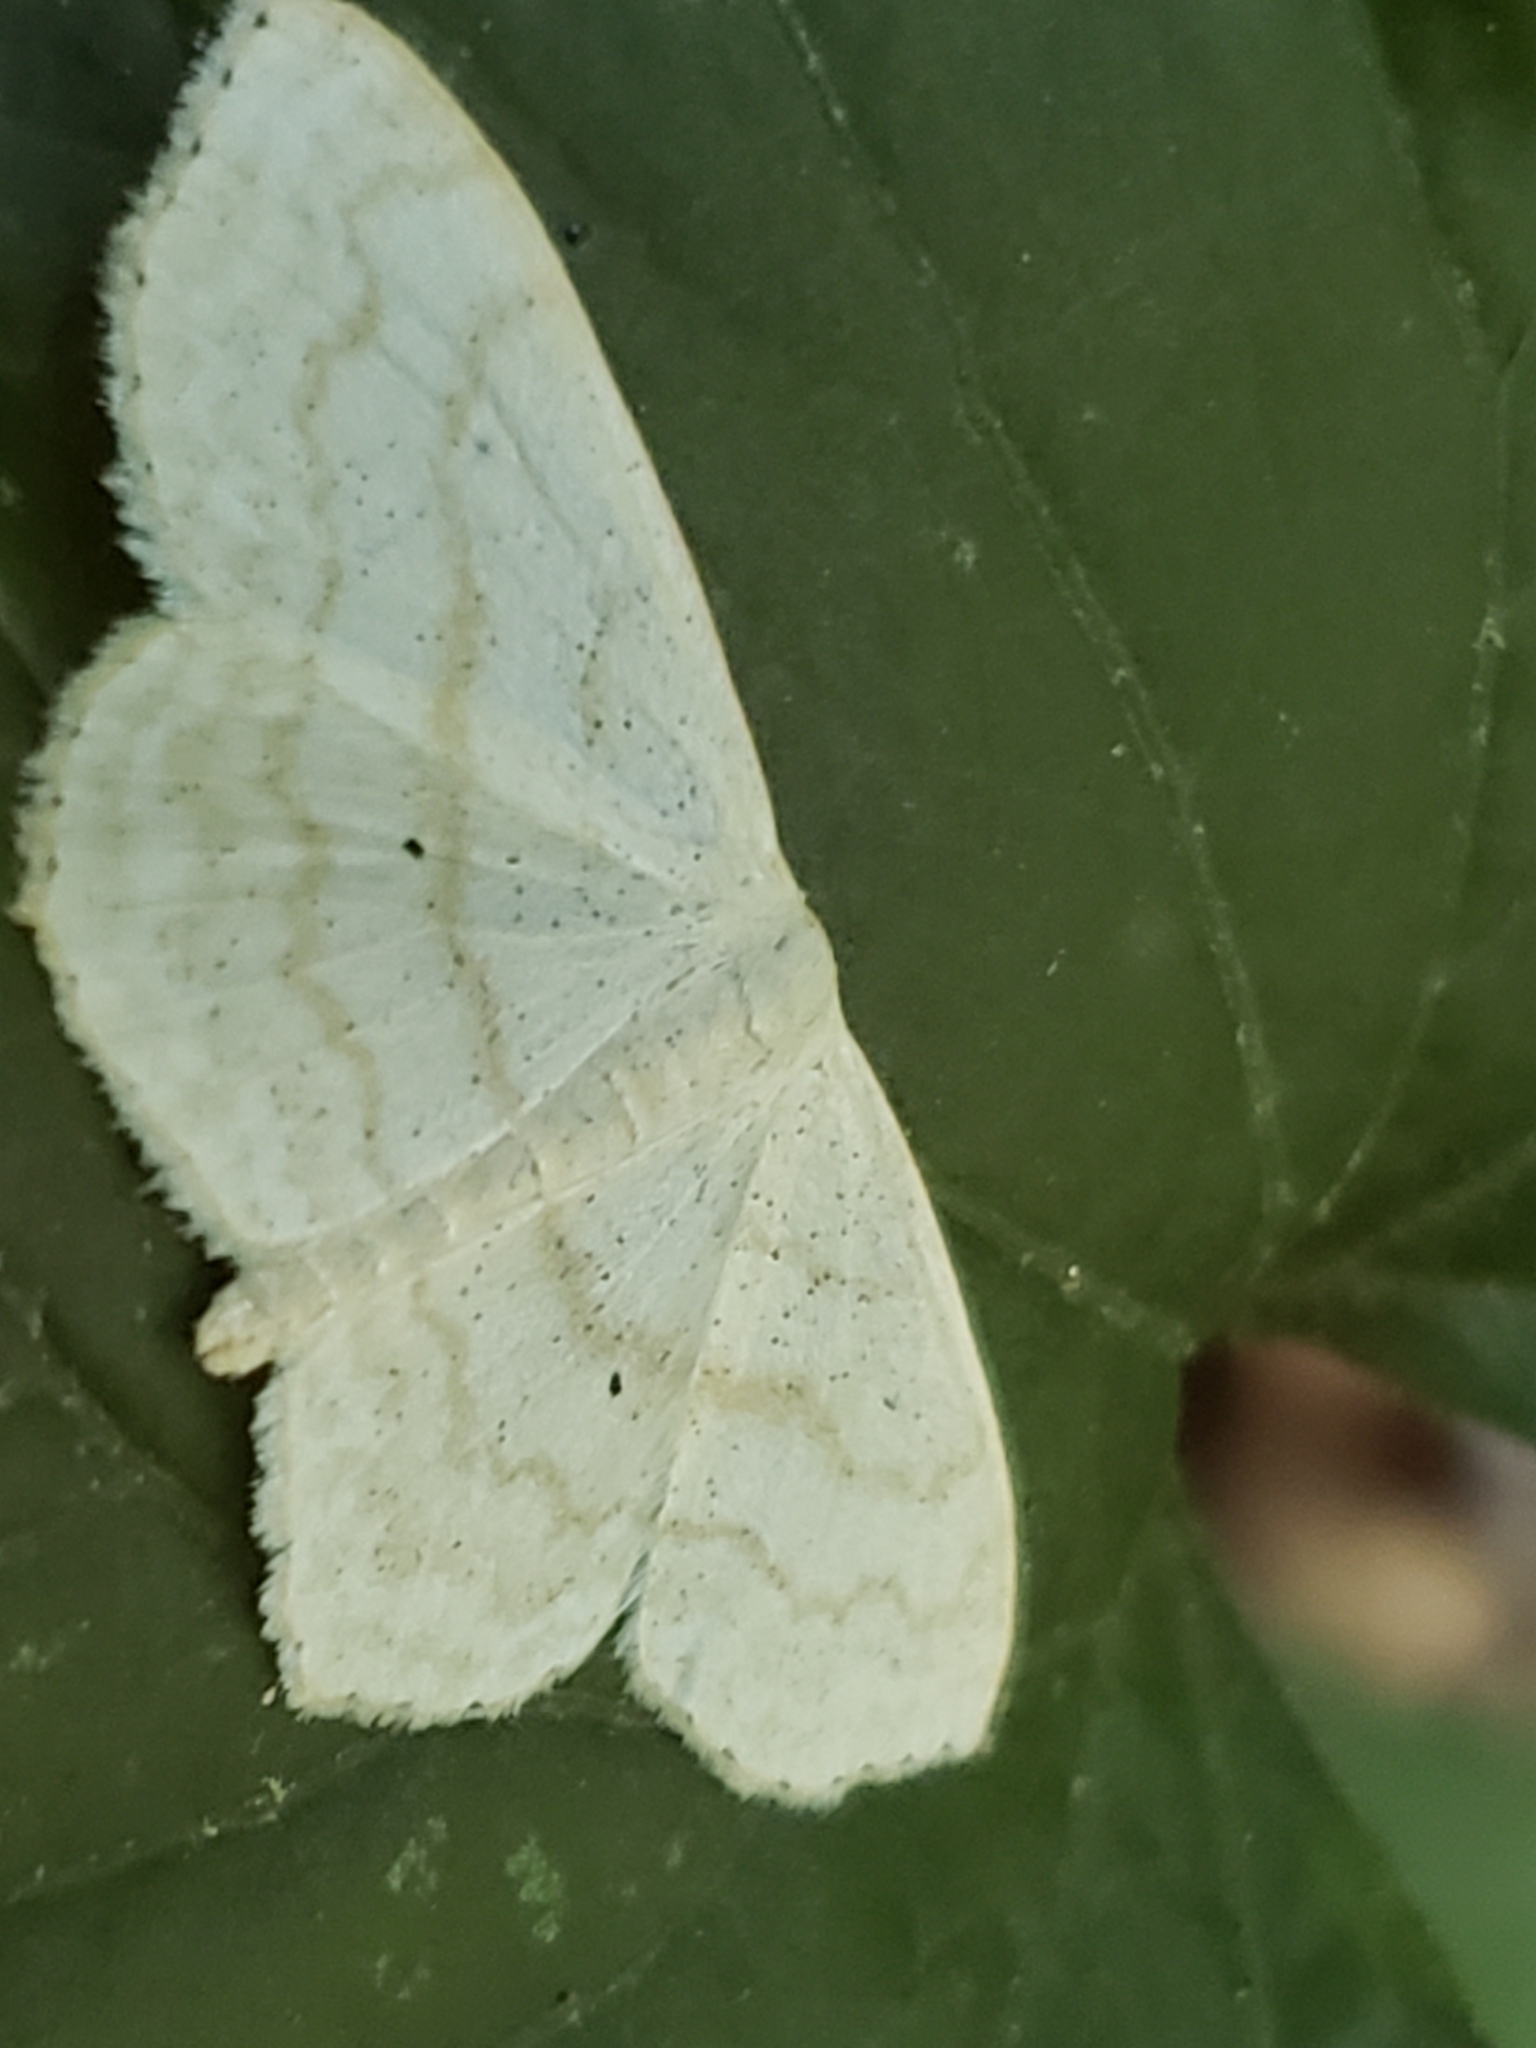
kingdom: Animalia
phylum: Arthropoda
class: Insecta
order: Lepidoptera
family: Geometridae
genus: Scopula
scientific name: Scopula limboundata
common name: Large lace border
